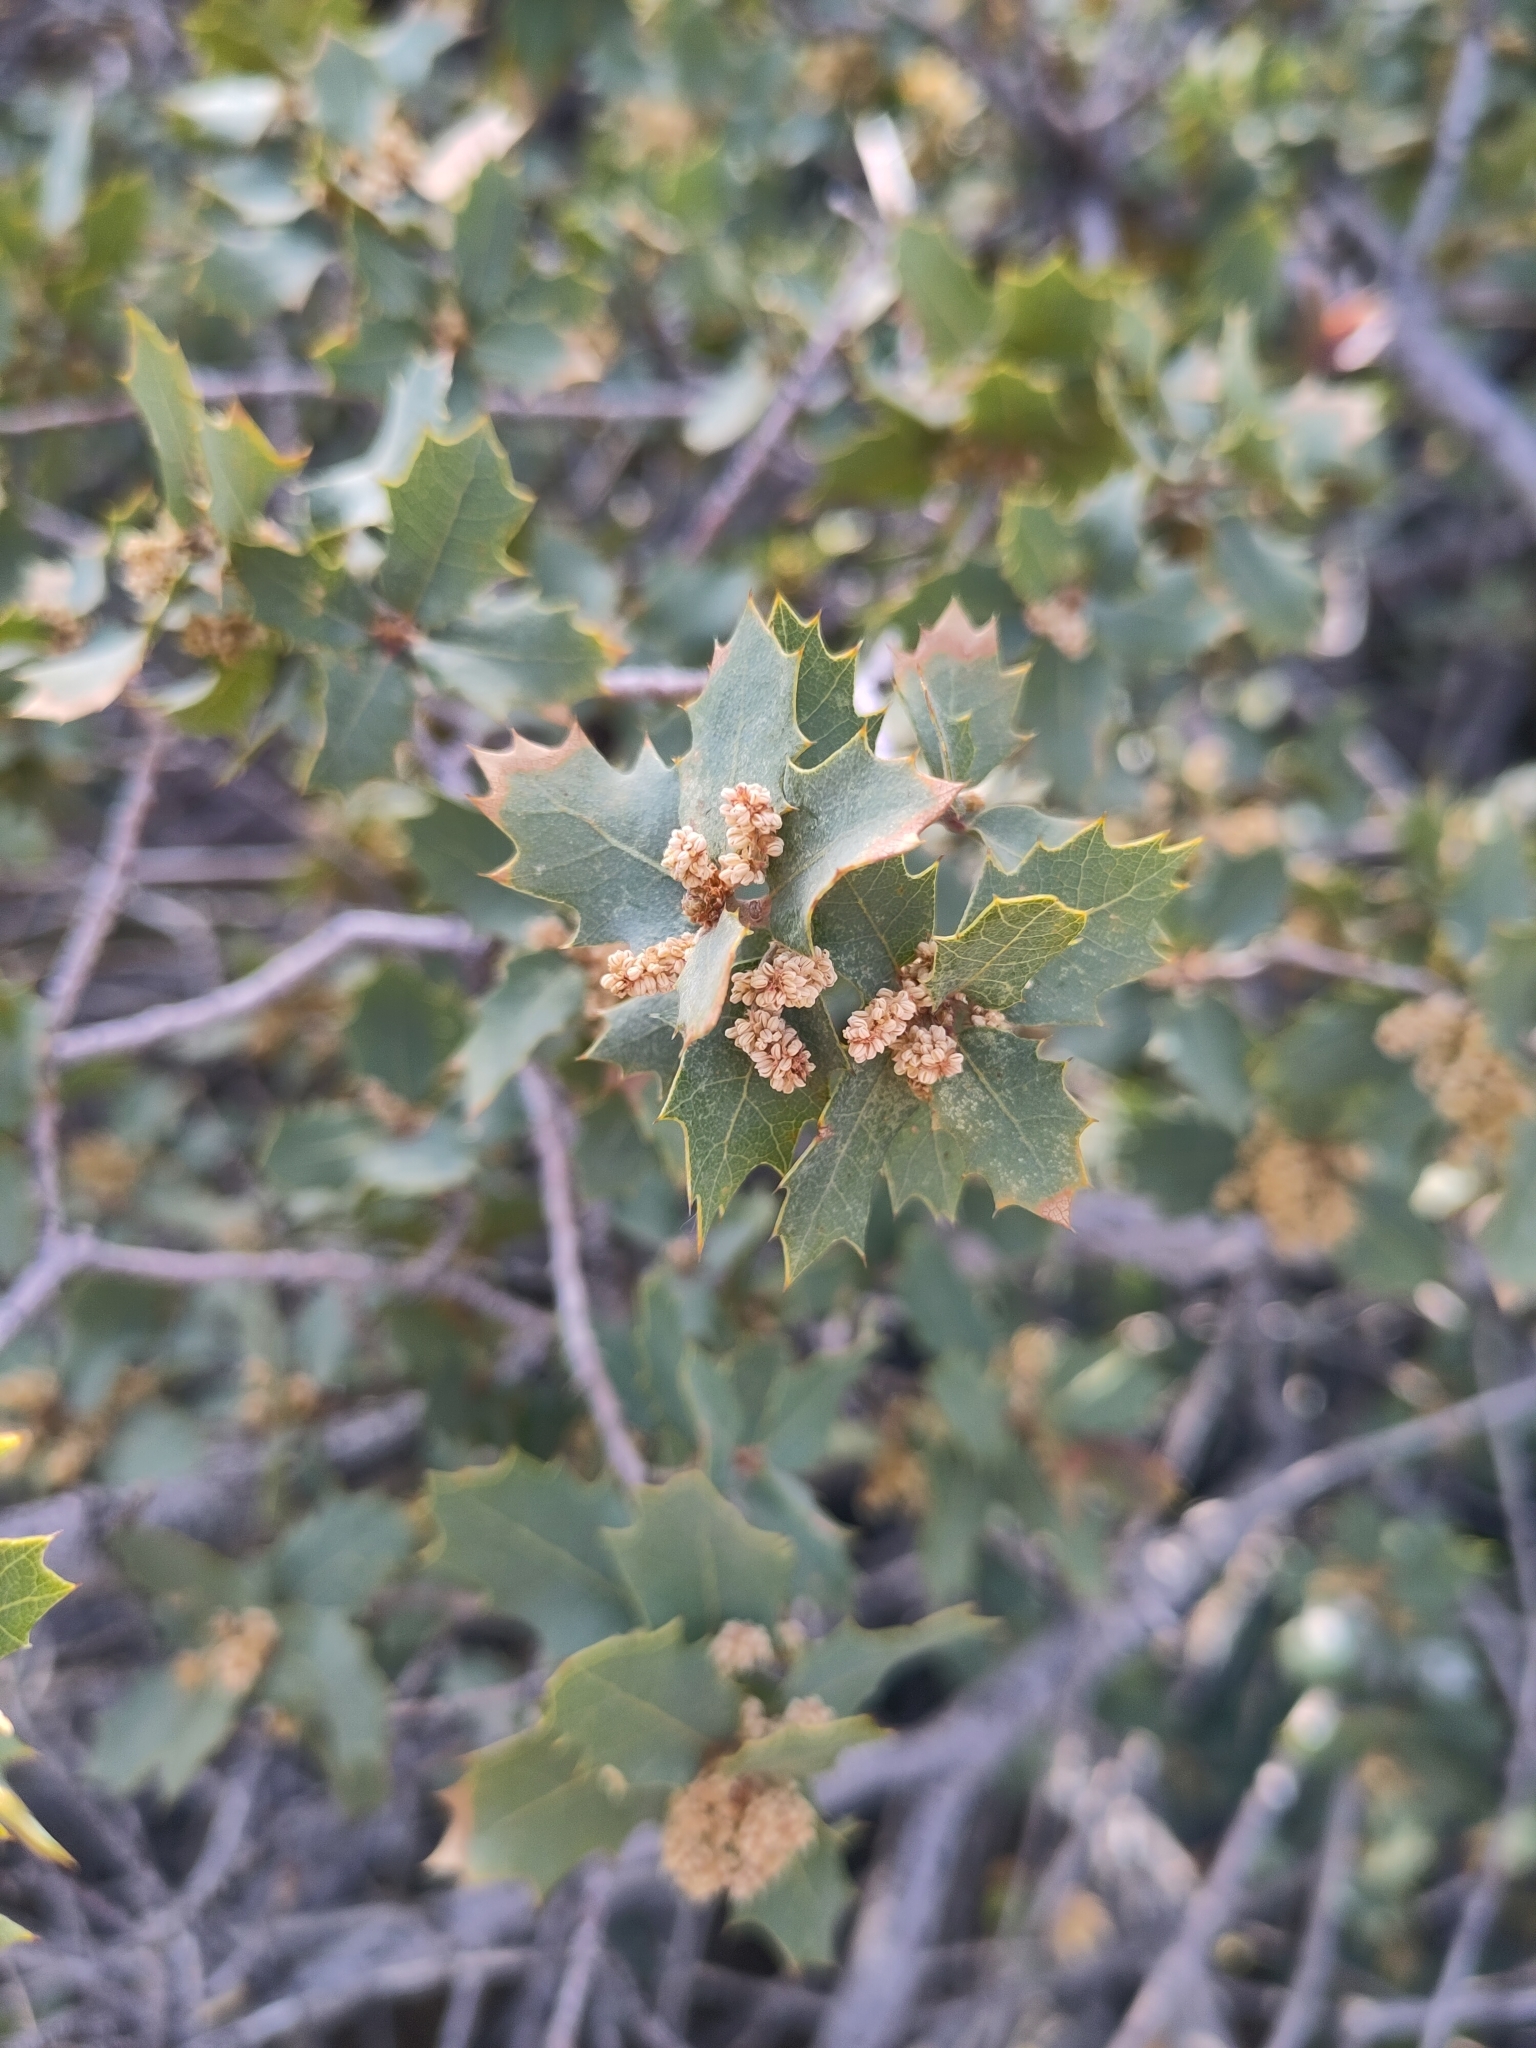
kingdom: Plantae
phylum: Tracheophyta
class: Magnoliopsida
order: Fagales
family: Fagaceae
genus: Quercus
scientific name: Quercus turbinella
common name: Sonoran scrub oak
